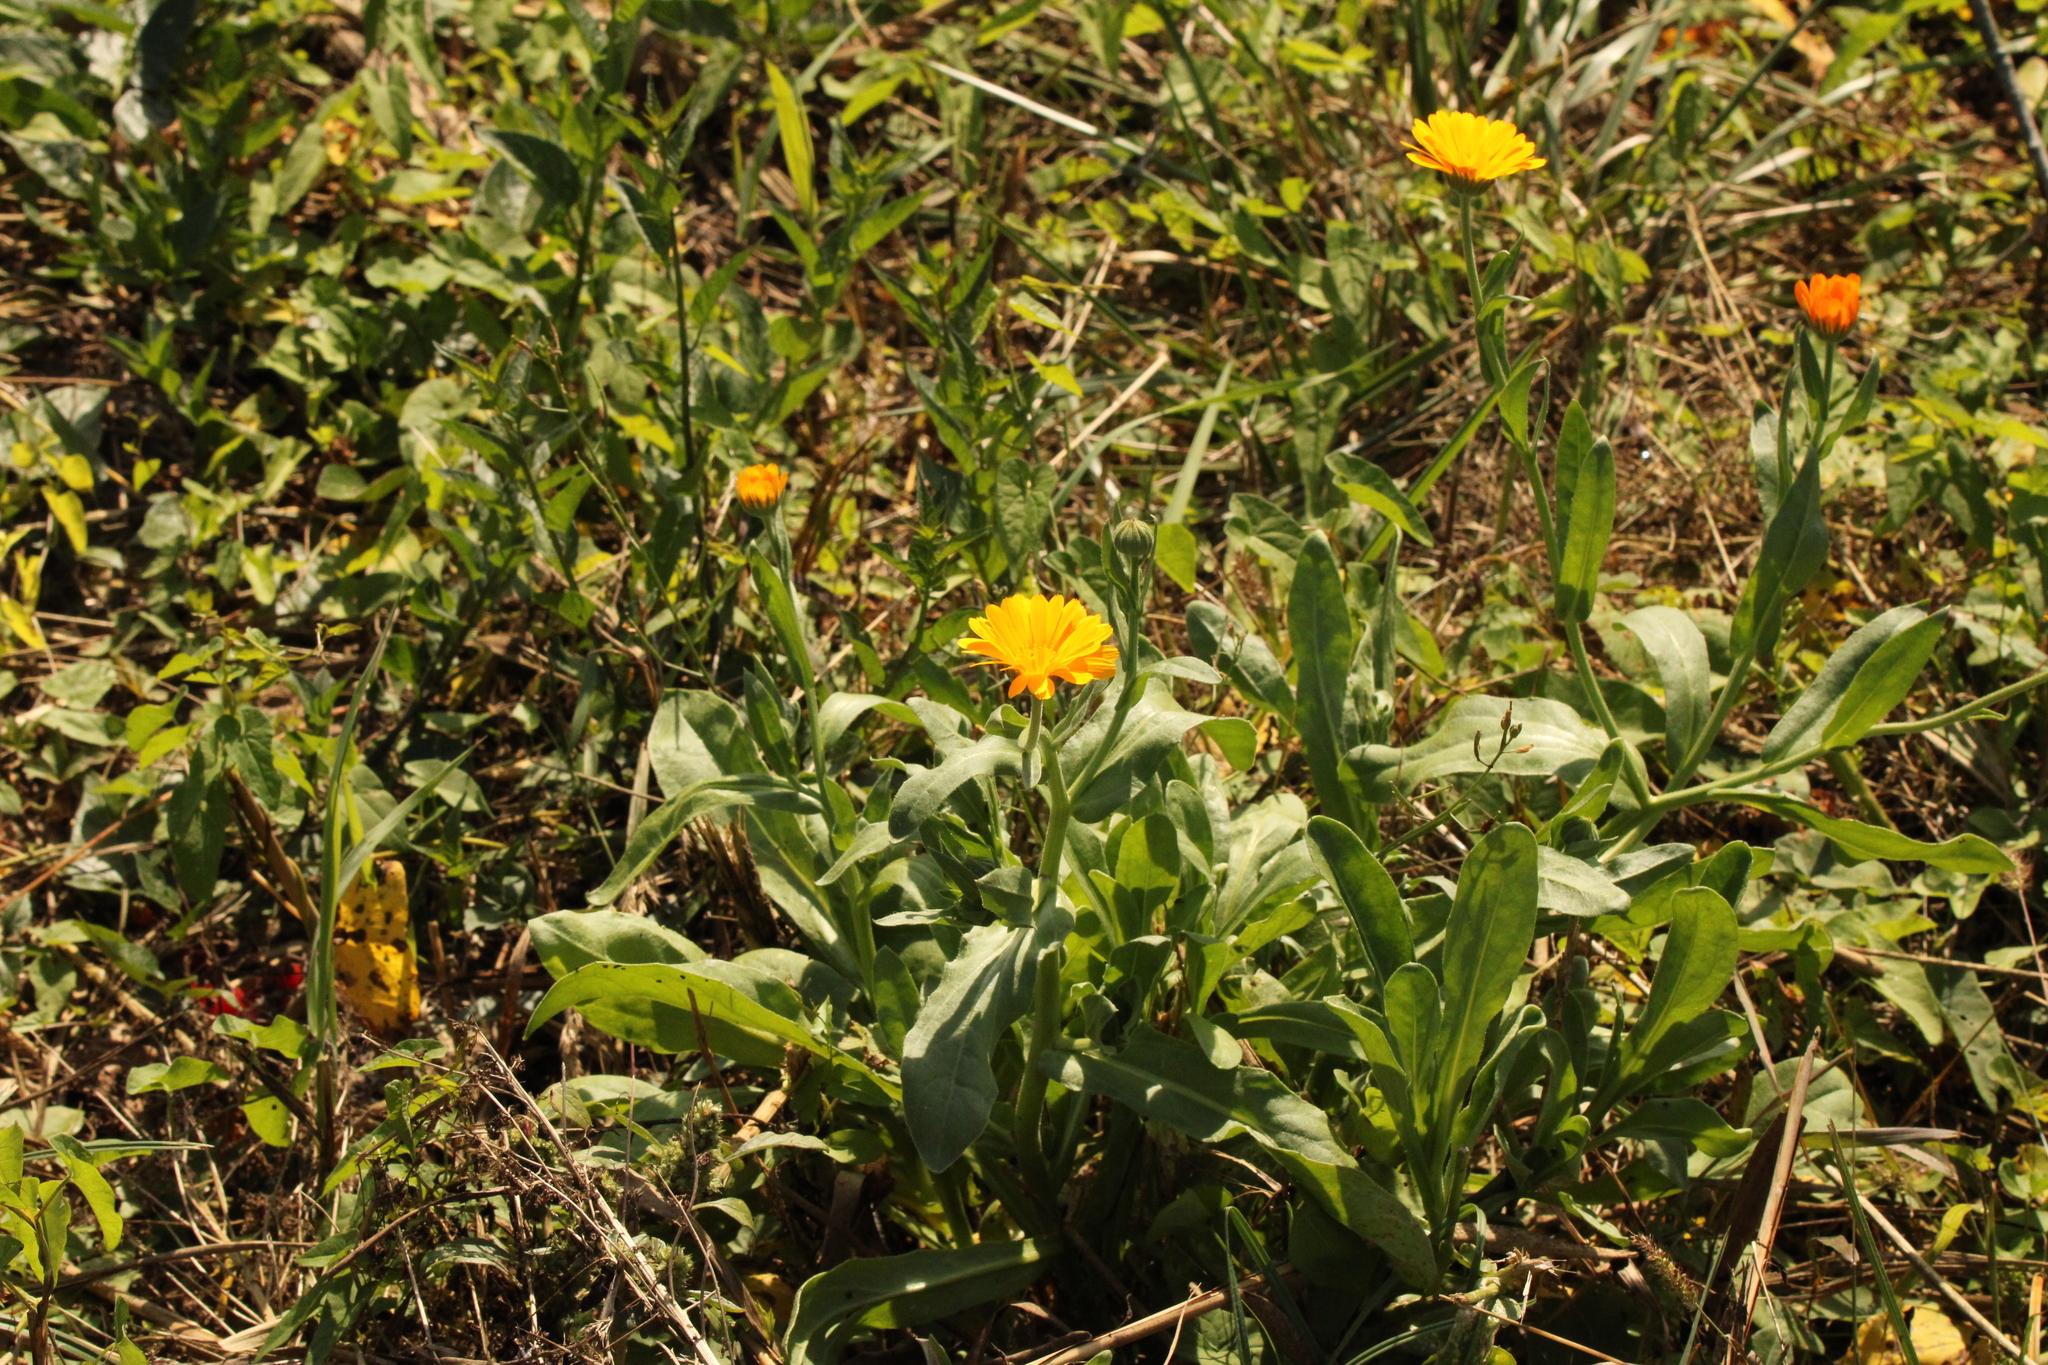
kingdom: Plantae
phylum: Tracheophyta
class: Magnoliopsida
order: Asterales
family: Asteraceae
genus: Calendula
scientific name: Calendula arvensis
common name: Field marigold
